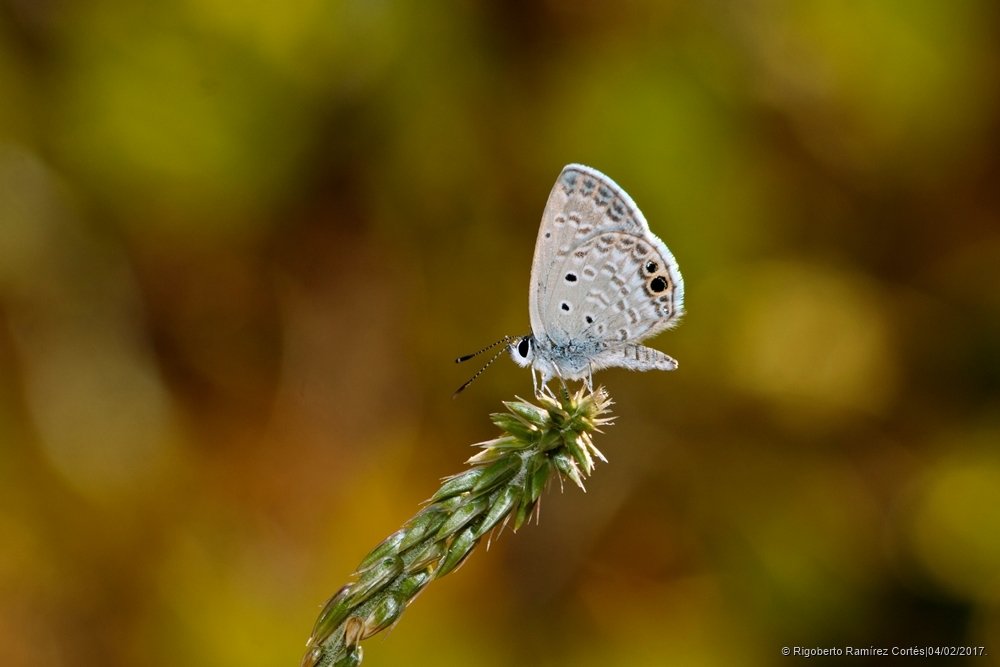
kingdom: Animalia
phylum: Arthropoda
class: Insecta
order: Lepidoptera
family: Lycaenidae
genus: Hemiargus
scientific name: Hemiargus ceraunus
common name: Ceraunus blue
